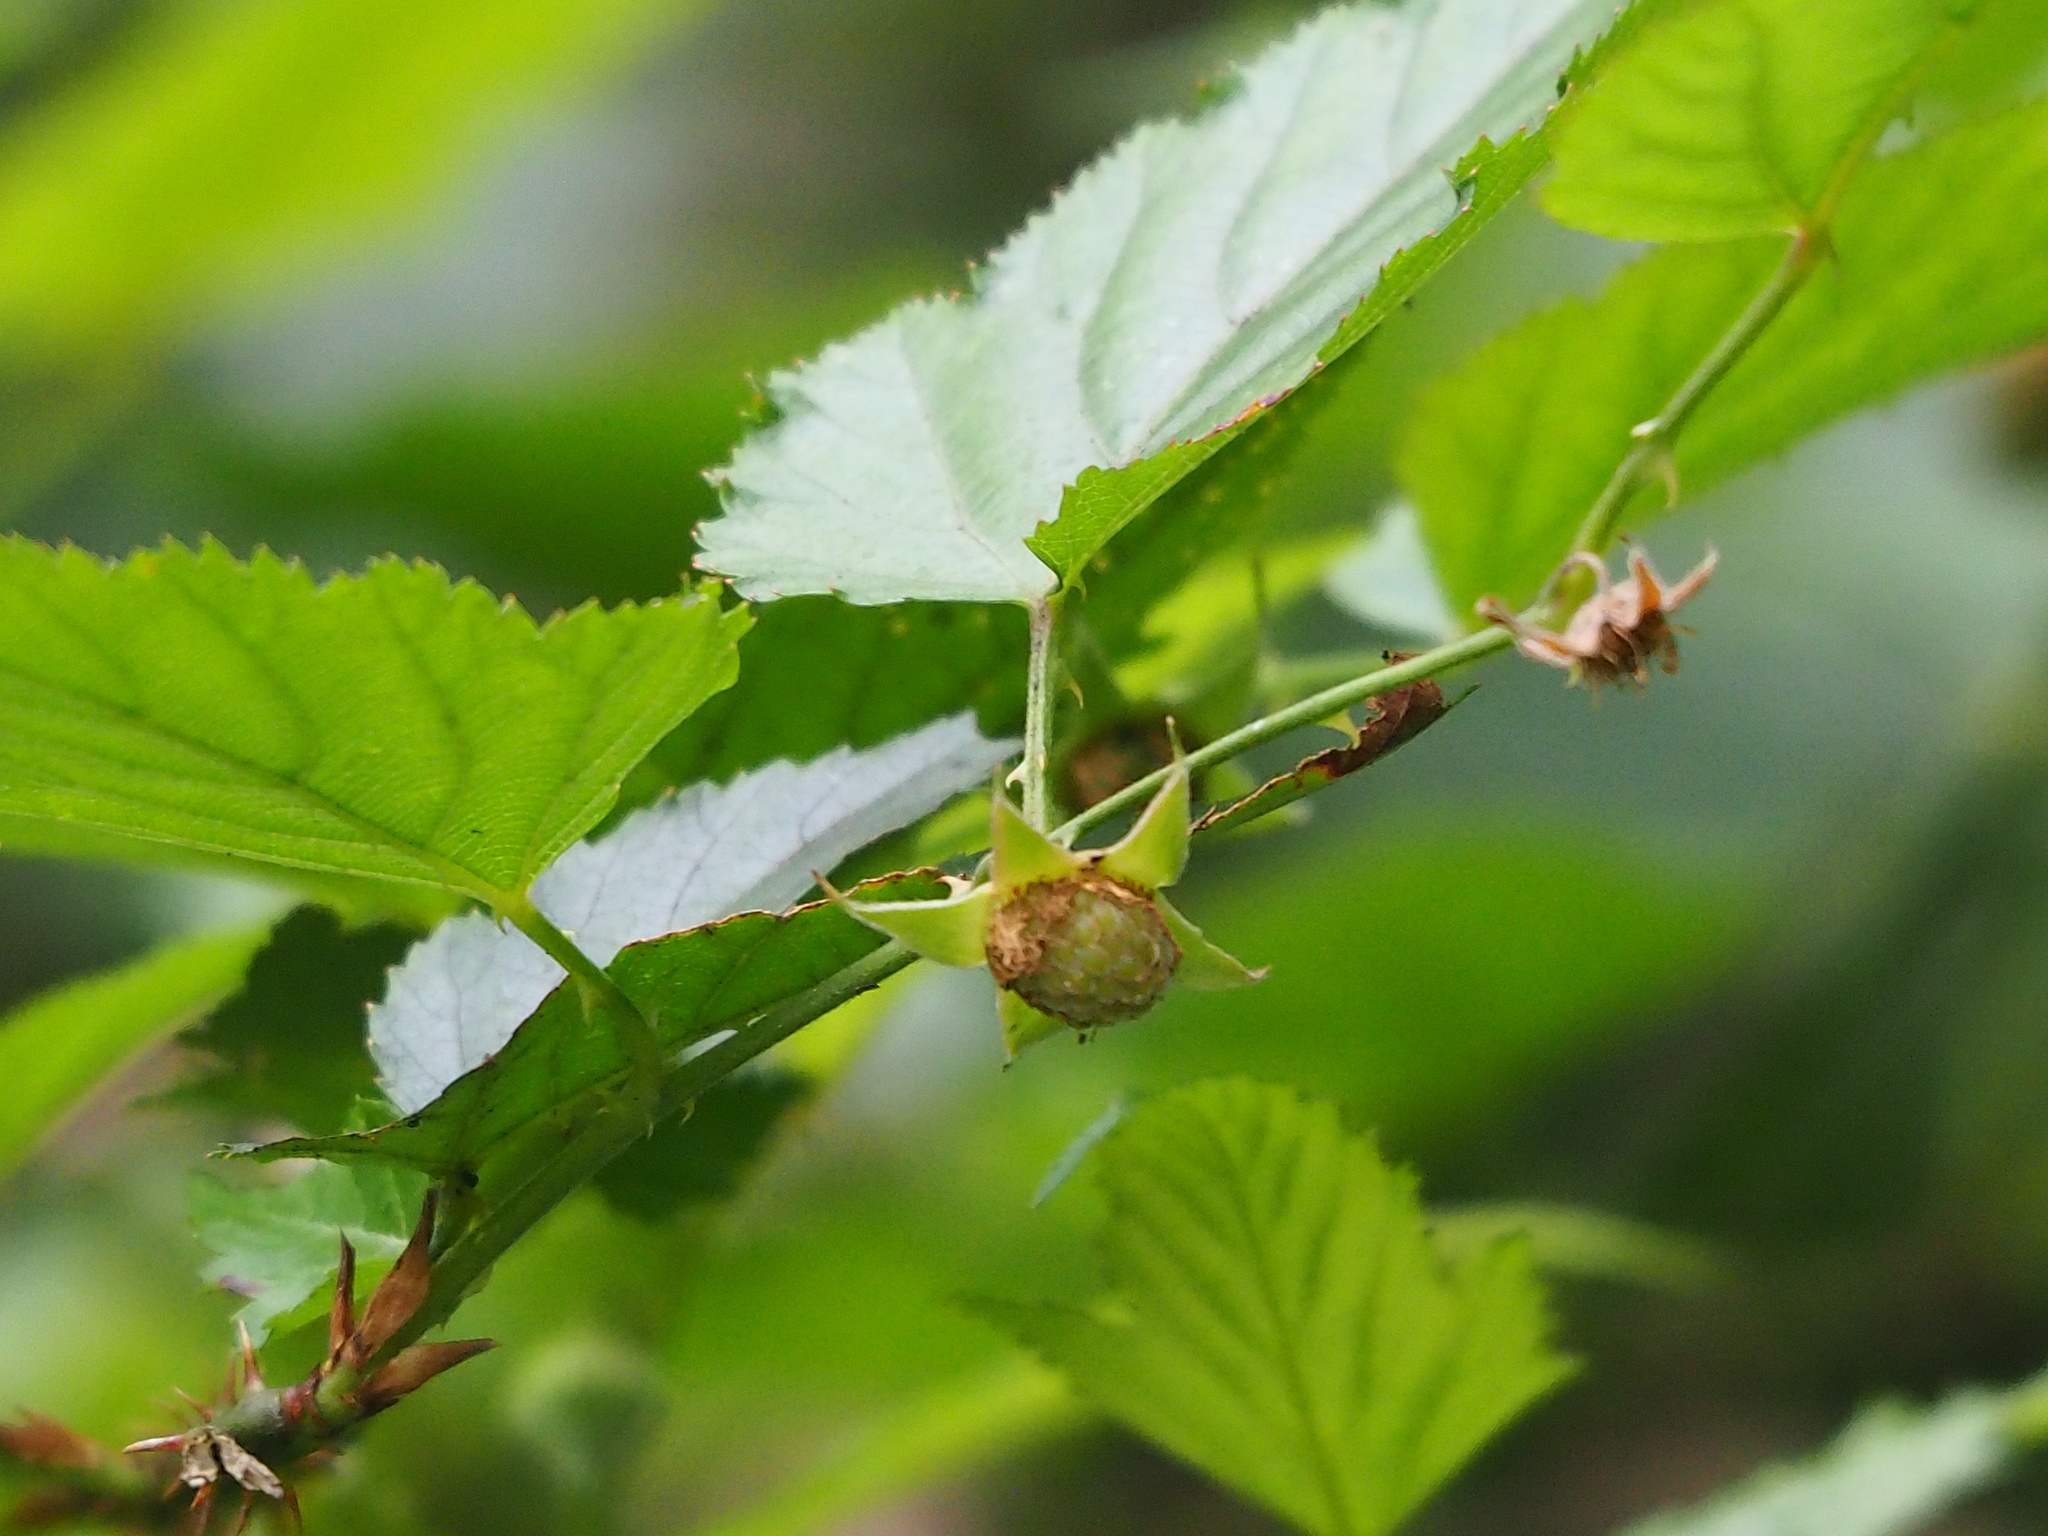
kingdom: Plantae
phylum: Tracheophyta
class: Magnoliopsida
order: Rosales
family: Rosaceae
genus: Rubus
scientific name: Rubus corchorifolius
